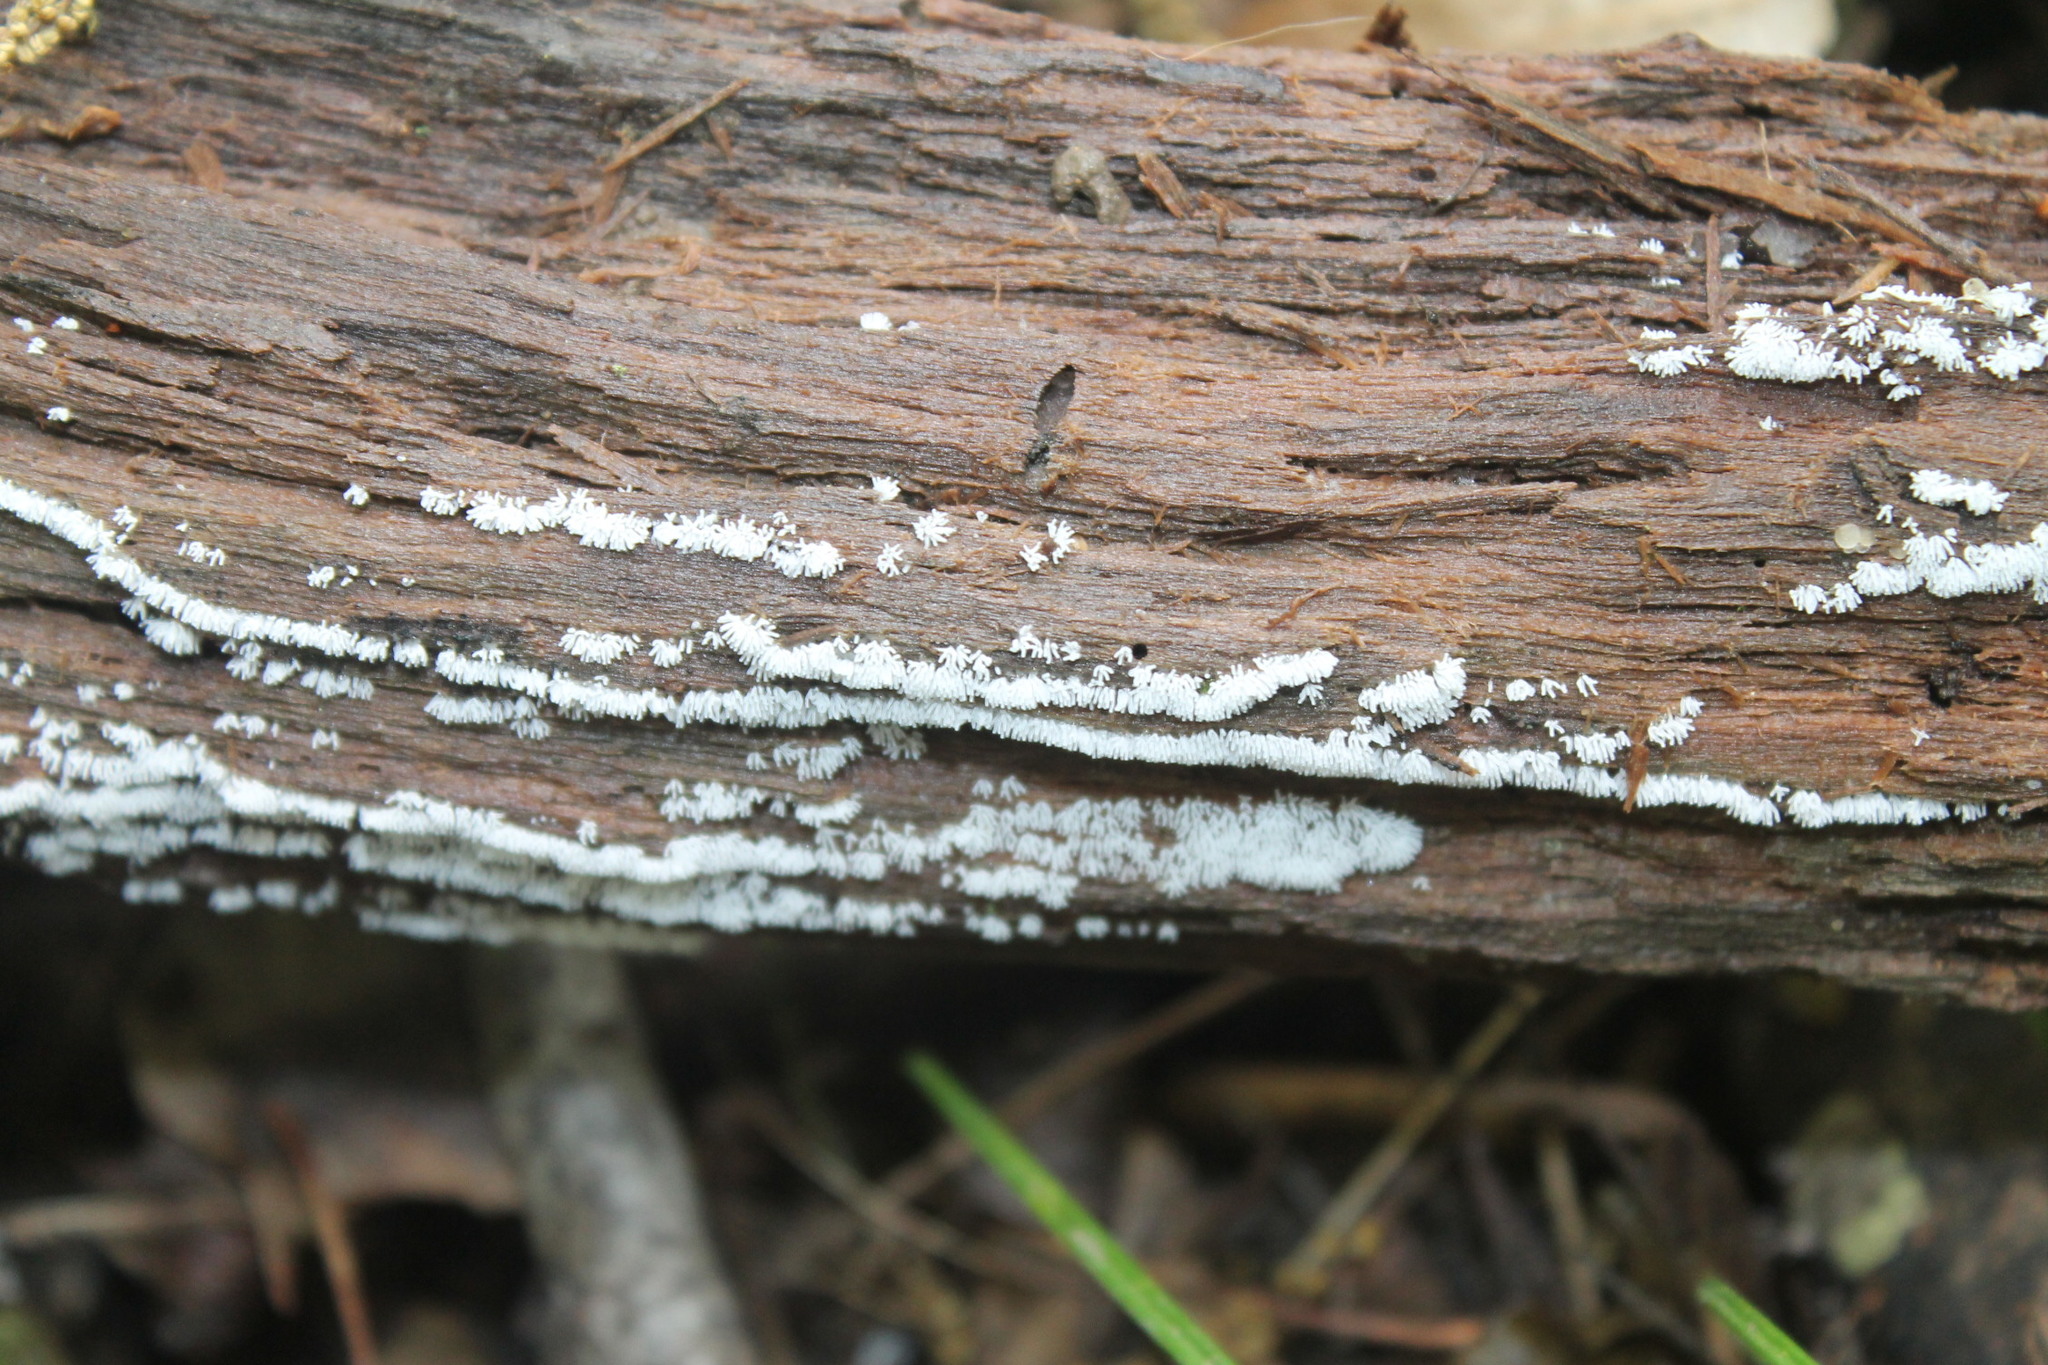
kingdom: Protozoa
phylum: Mycetozoa
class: Protosteliomycetes
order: Ceratiomyxales
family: Ceratiomyxaceae
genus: Ceratiomyxa
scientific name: Ceratiomyxa fruticulosa
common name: Honeycomb coral slime mold
